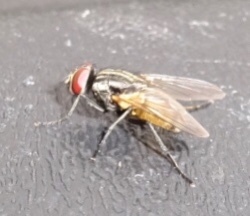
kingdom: Animalia
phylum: Arthropoda
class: Insecta
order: Diptera
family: Muscidae
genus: Musca
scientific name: Musca domestica
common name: House fly
